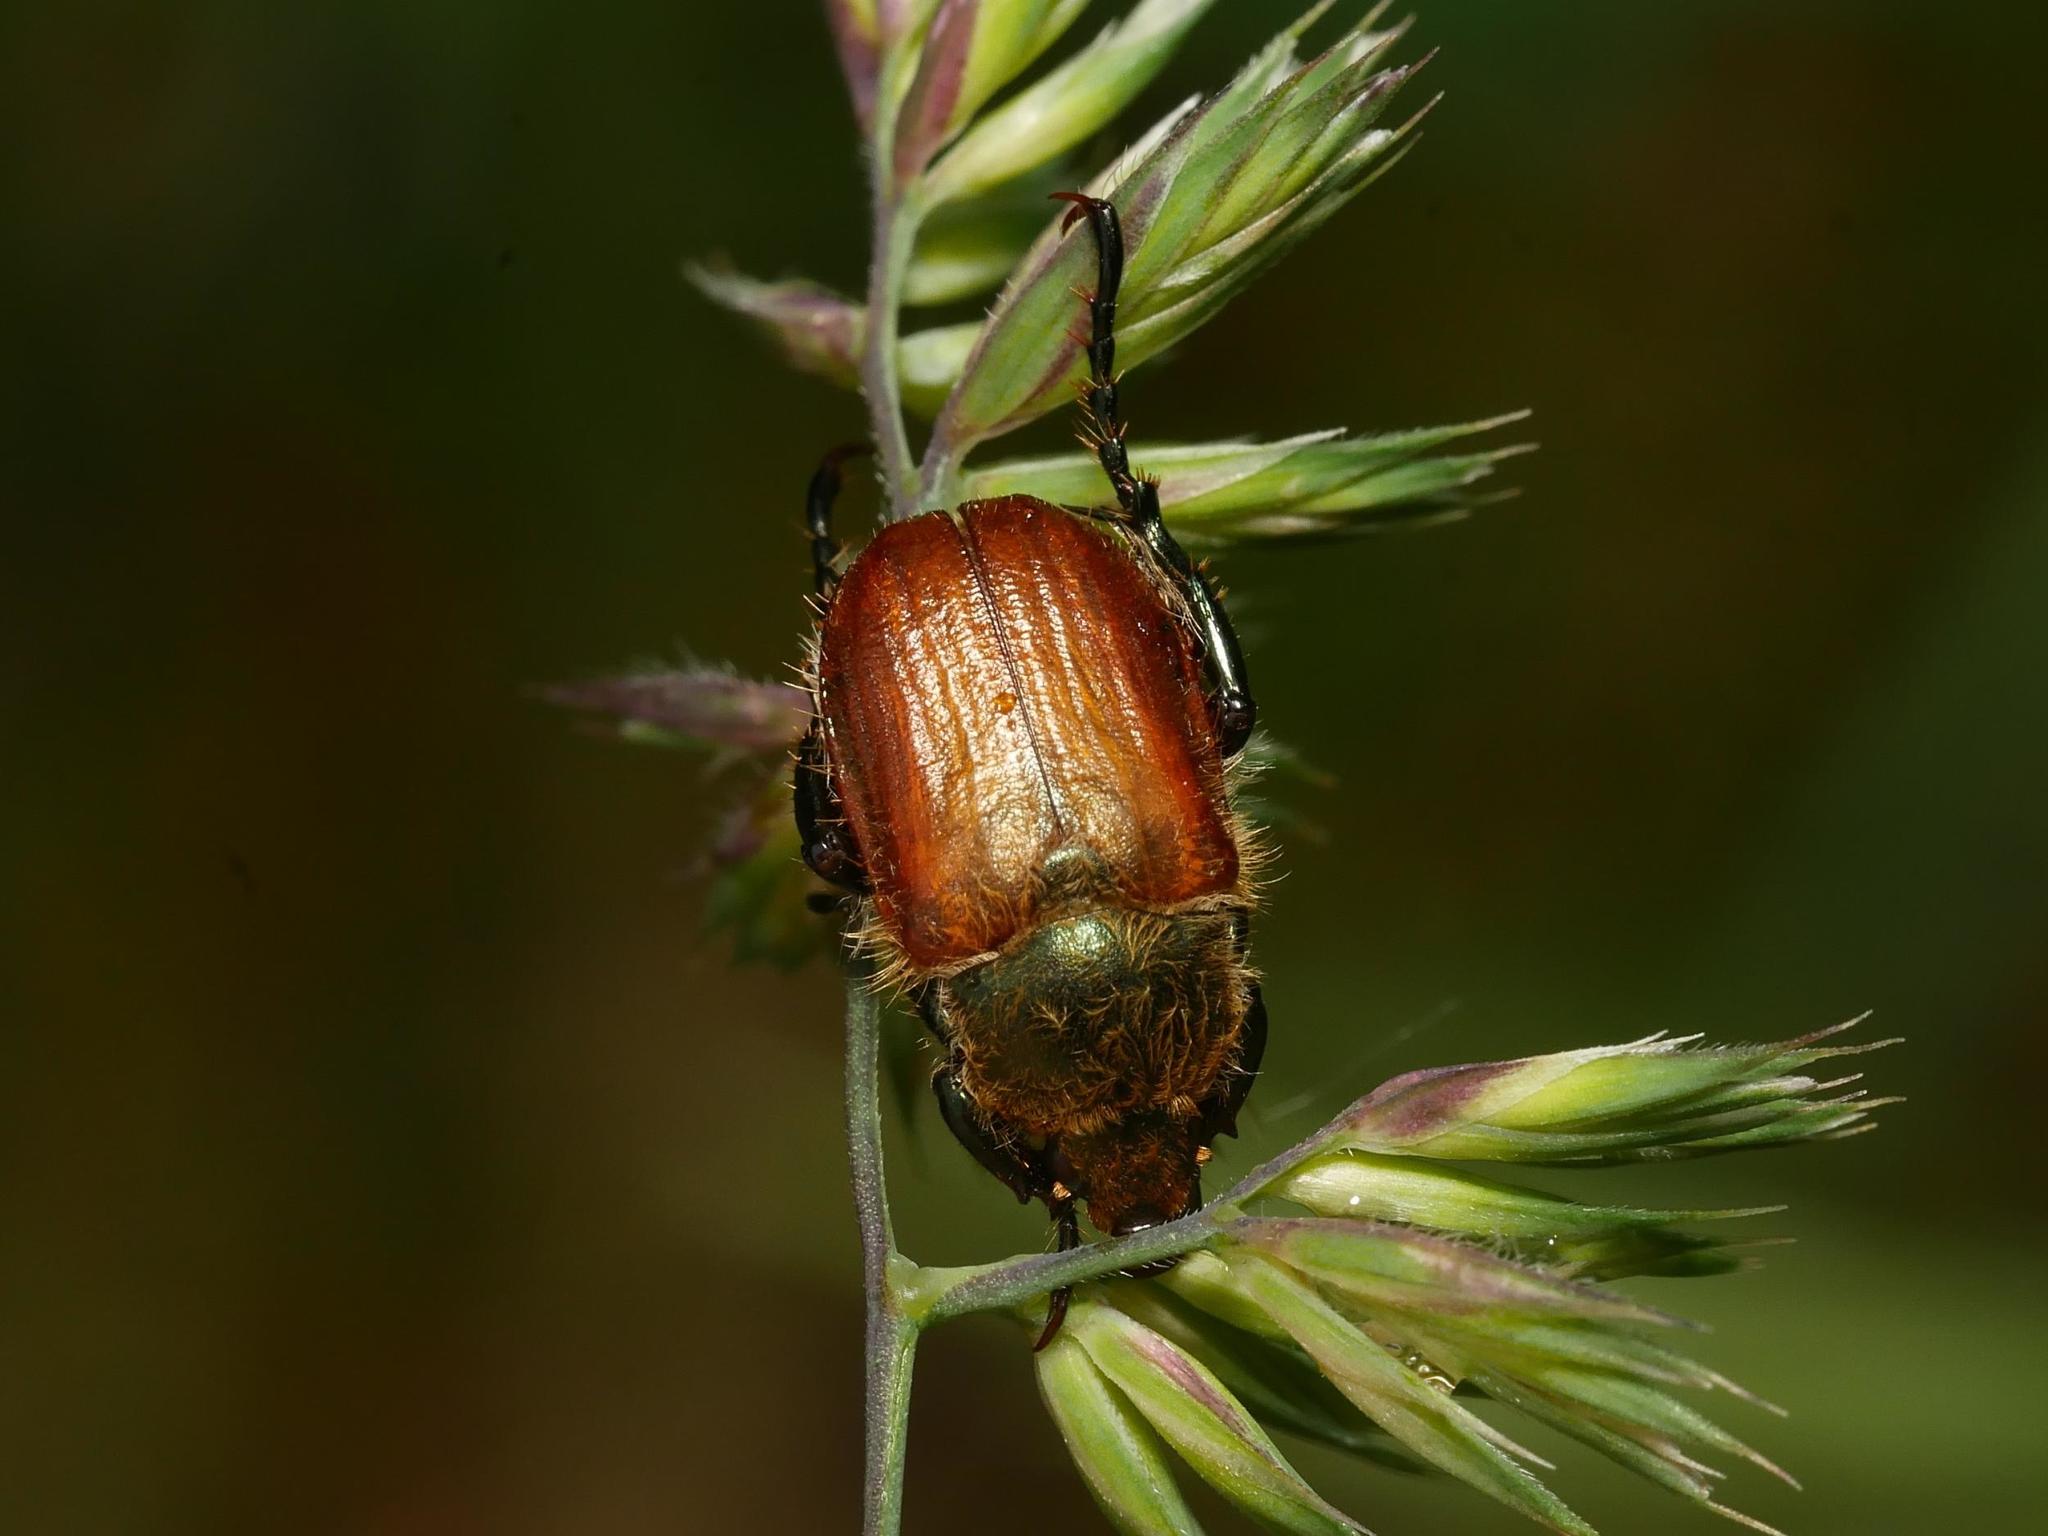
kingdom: Animalia
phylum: Arthropoda
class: Insecta
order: Coleoptera
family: Scarabaeidae
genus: Chaetopteroplia
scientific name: Chaetopteroplia segetum
